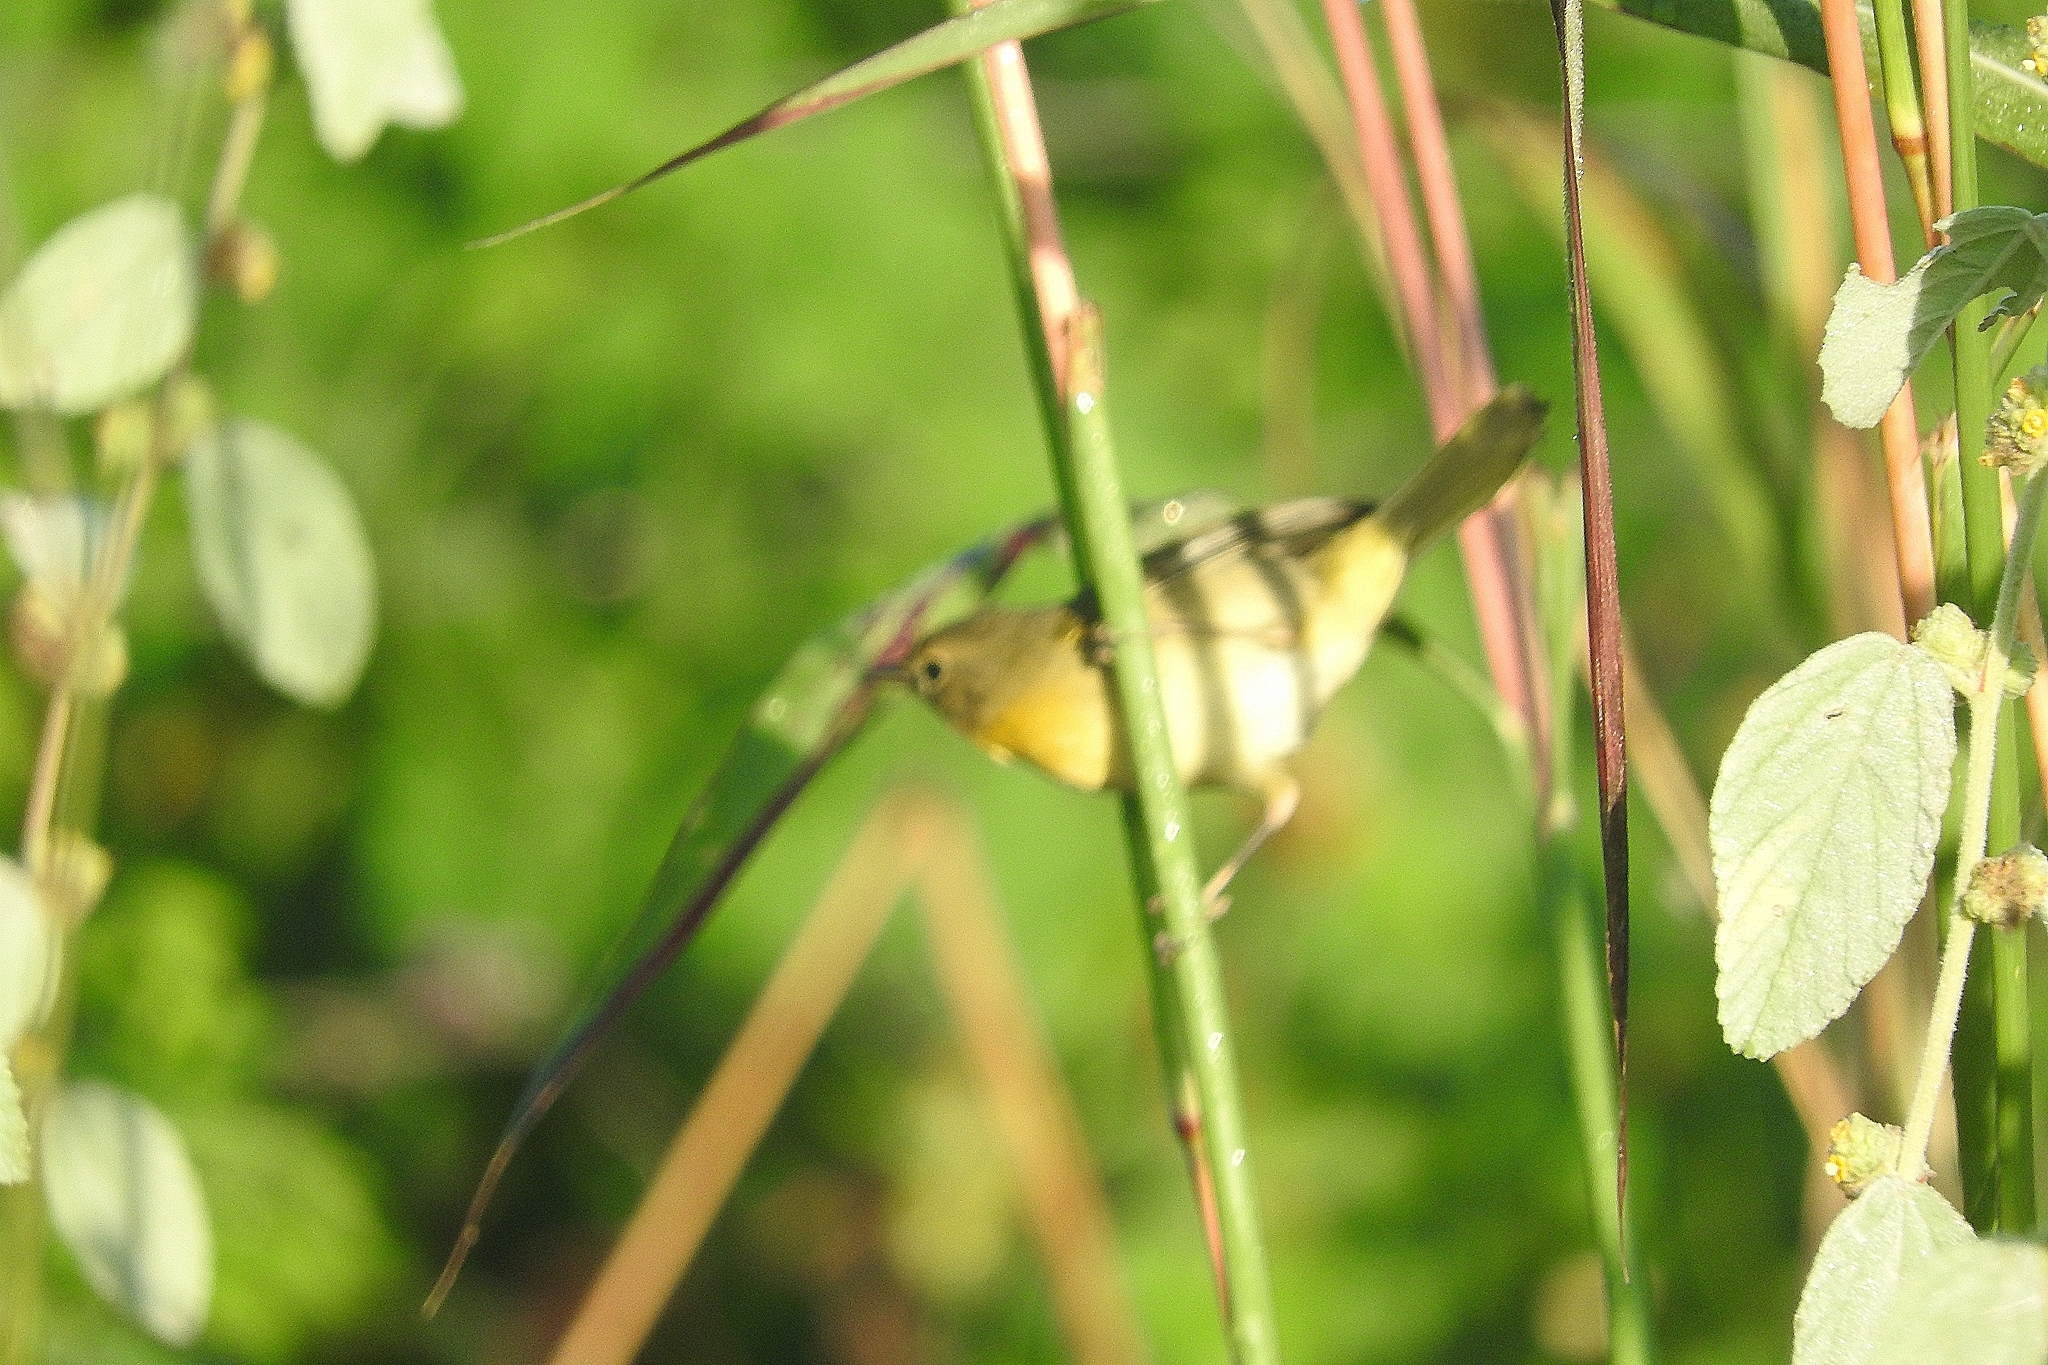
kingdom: Animalia
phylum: Chordata
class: Aves
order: Passeriformes
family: Parulidae
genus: Geothlypis
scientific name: Geothlypis trichas
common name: Common yellowthroat
